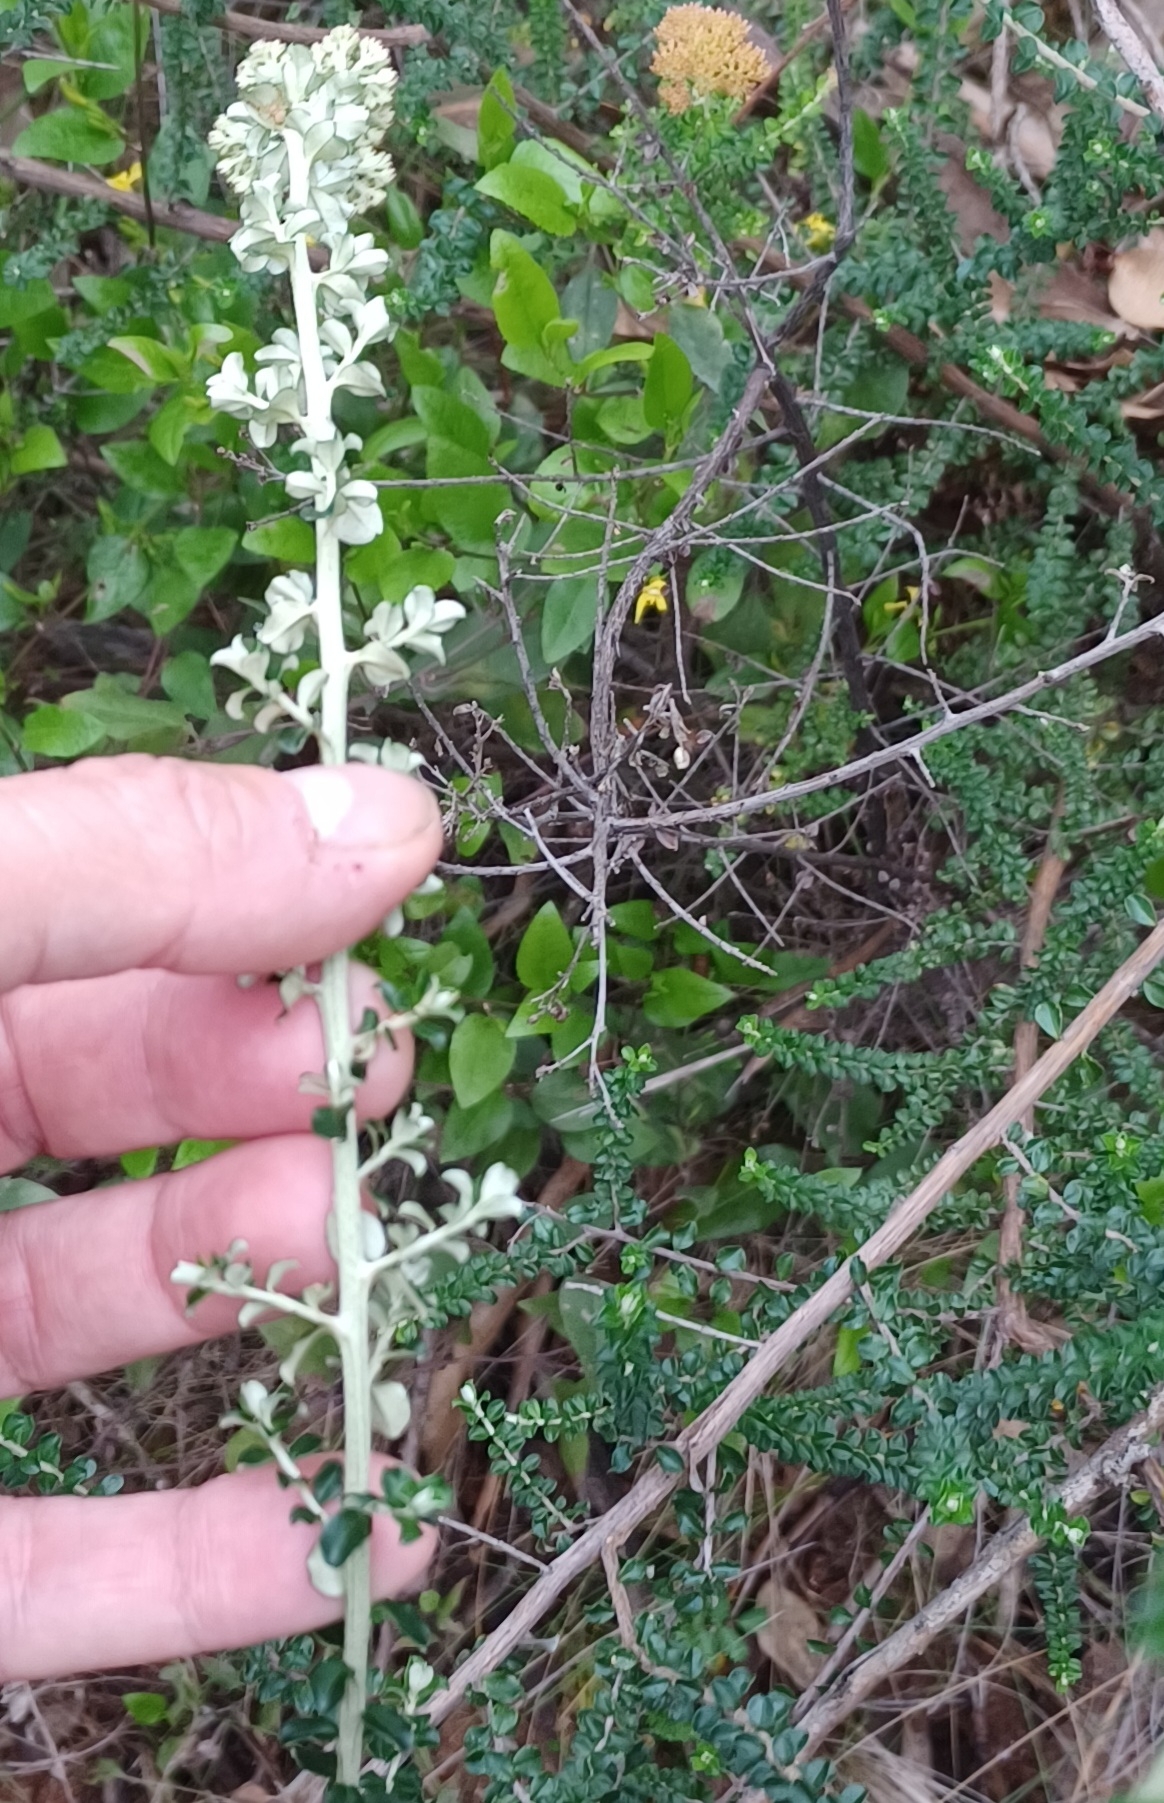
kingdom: Plantae
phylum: Tracheophyta
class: Magnoliopsida
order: Asterales
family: Asteraceae
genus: Ozothamnus
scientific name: Ozothamnus obcordatus
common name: Grey everlasting
